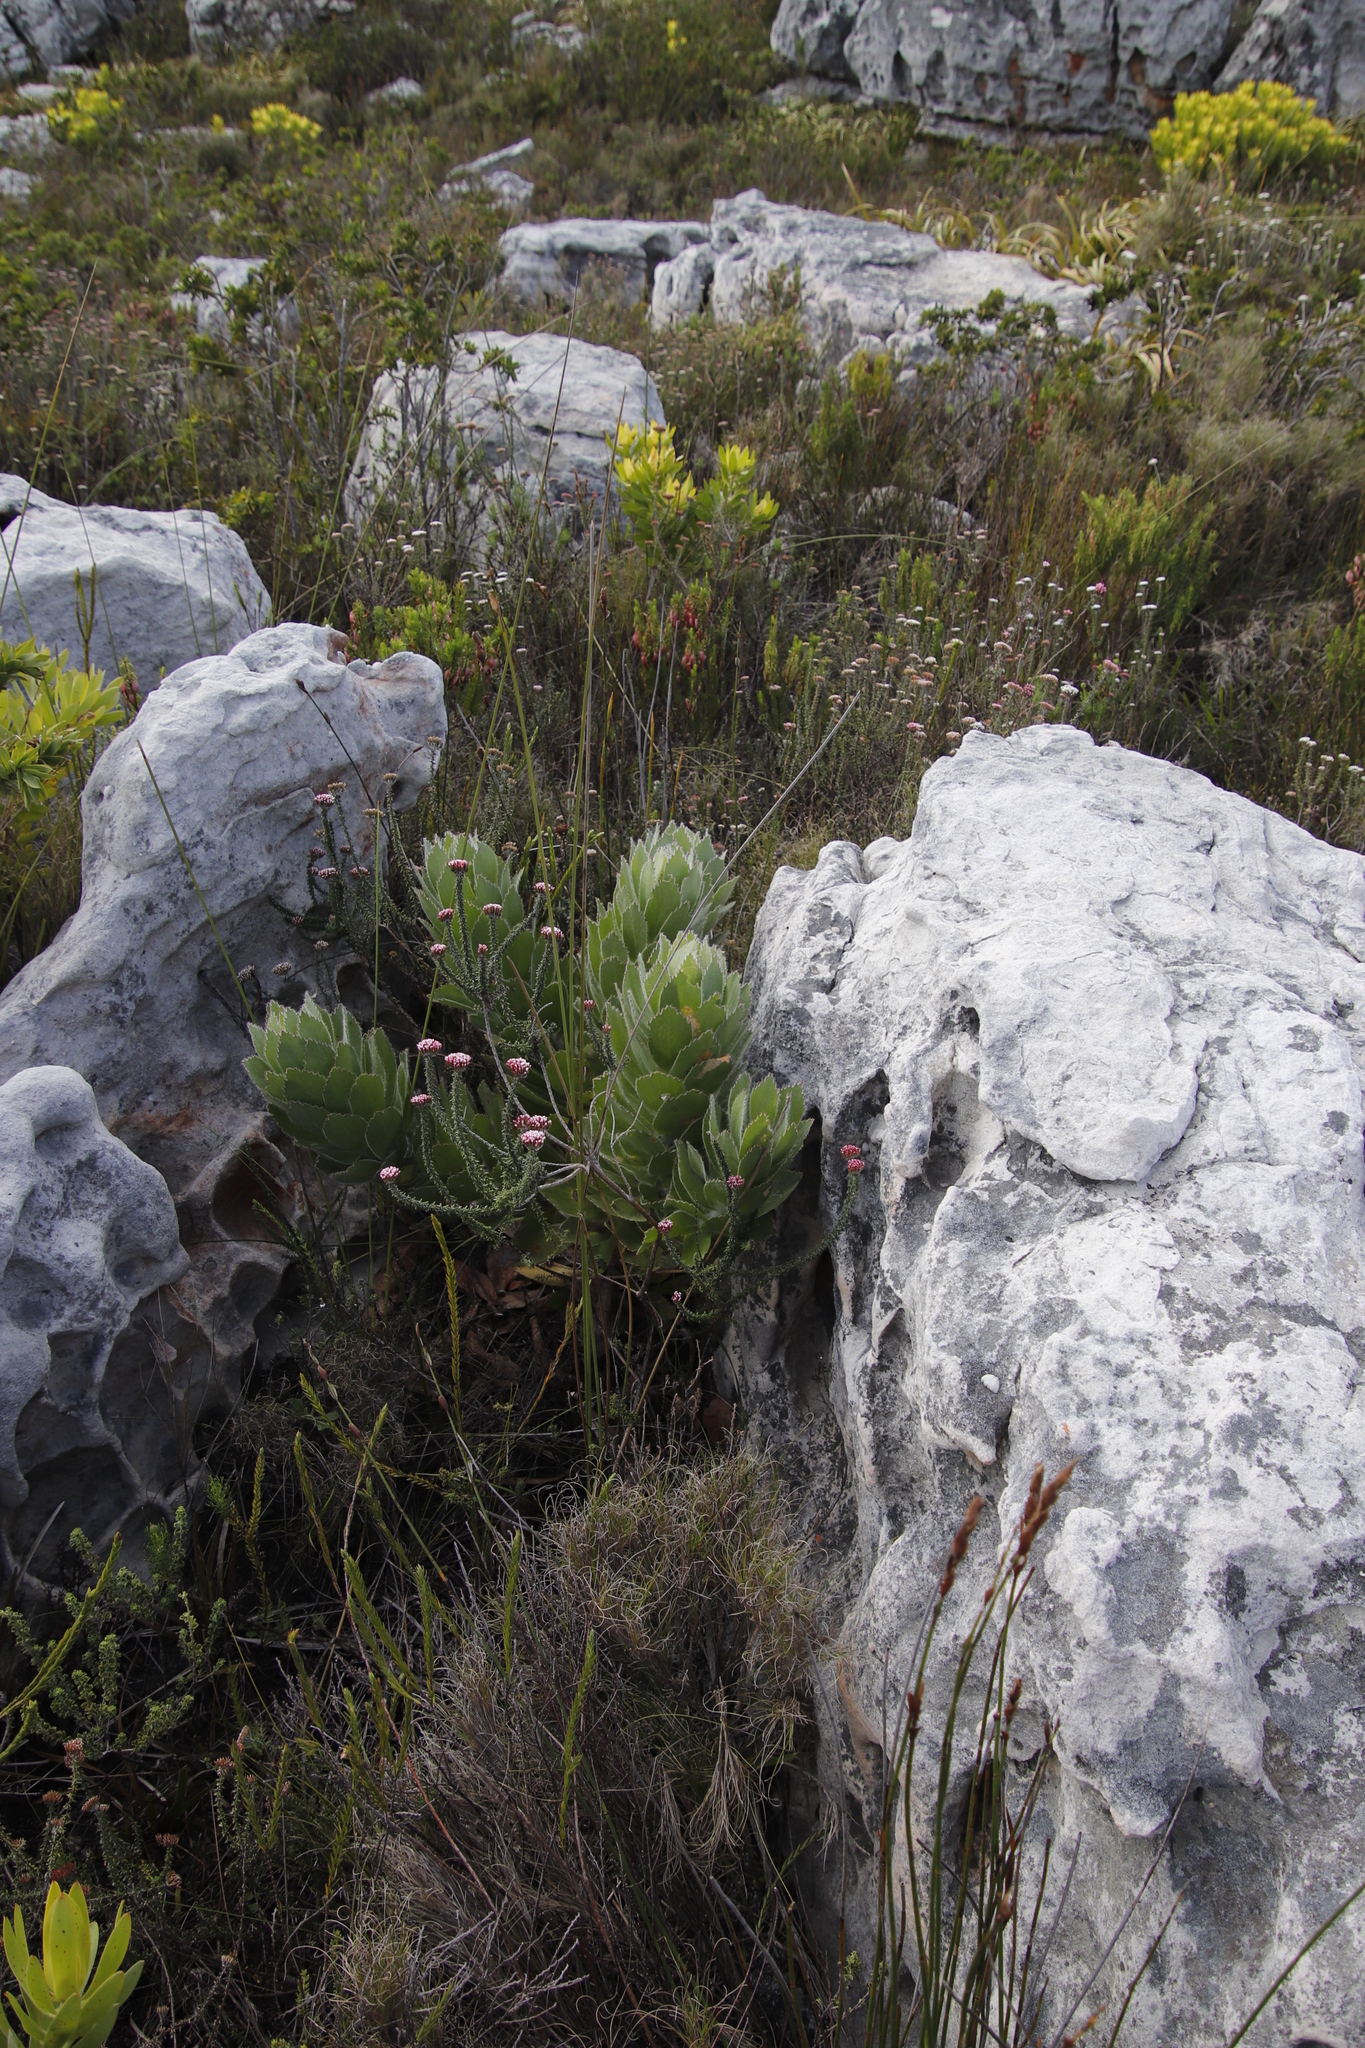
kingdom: Plantae
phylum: Tracheophyta
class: Magnoliopsida
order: Proteales
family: Proteaceae
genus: Leucospermum
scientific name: Leucospermum conocarpodendron
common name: Tree pincushion
